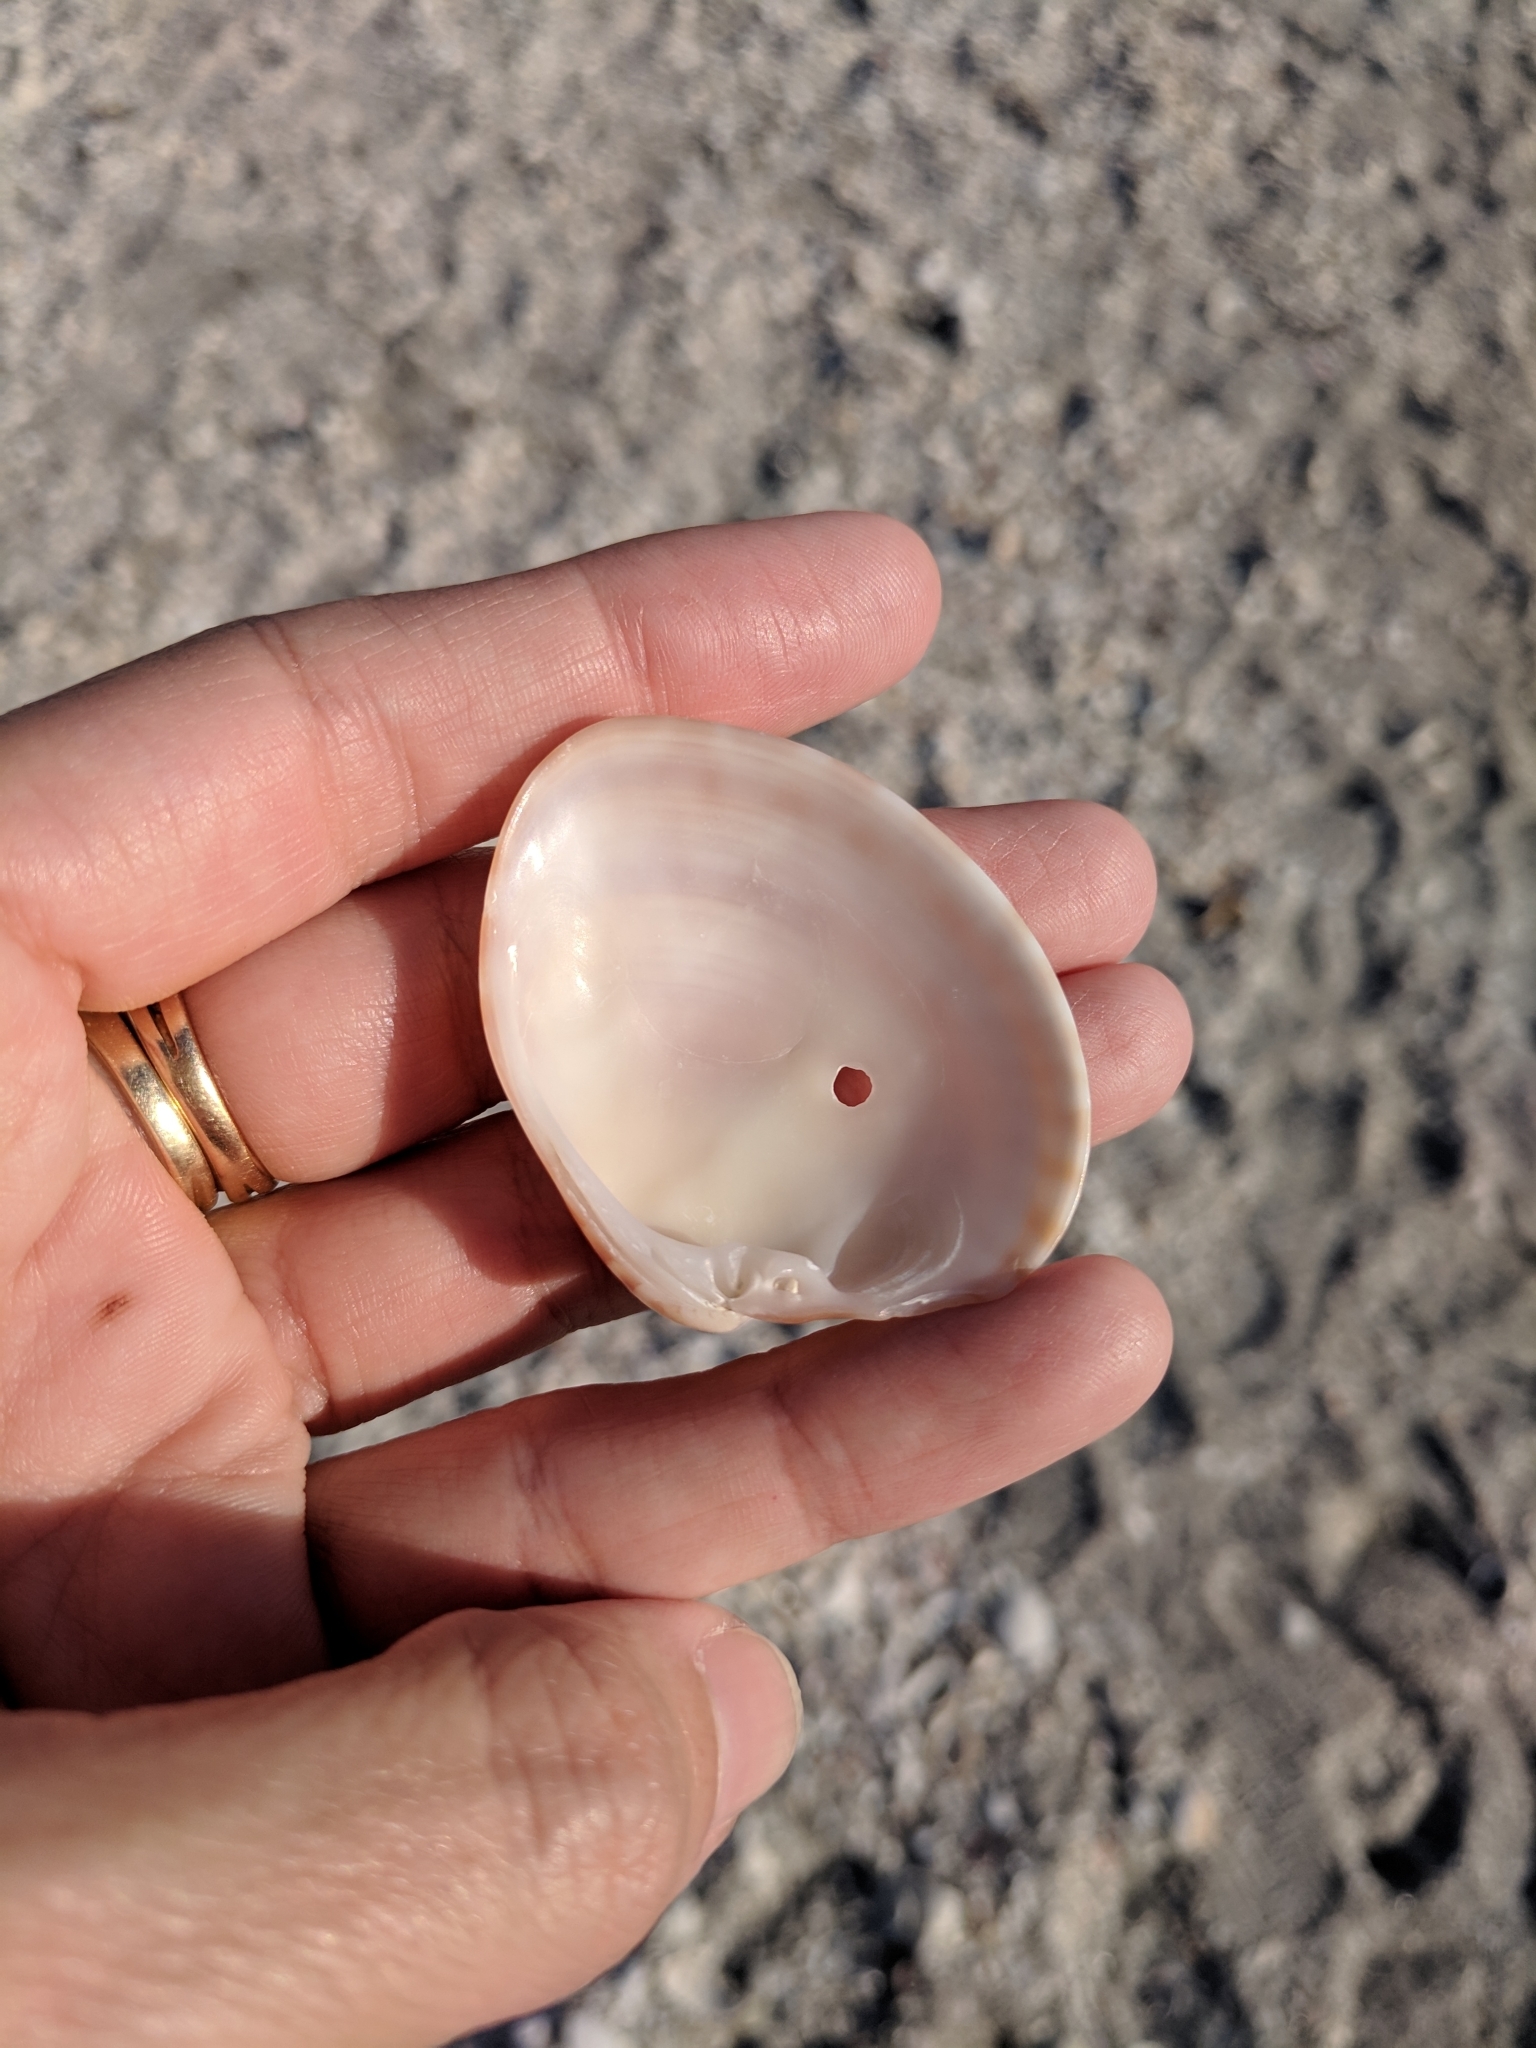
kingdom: Animalia
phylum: Mollusca
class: Bivalvia
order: Venerida
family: Veneridae
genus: Megapitaria
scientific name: Megapitaria maculata
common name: Calico clam
